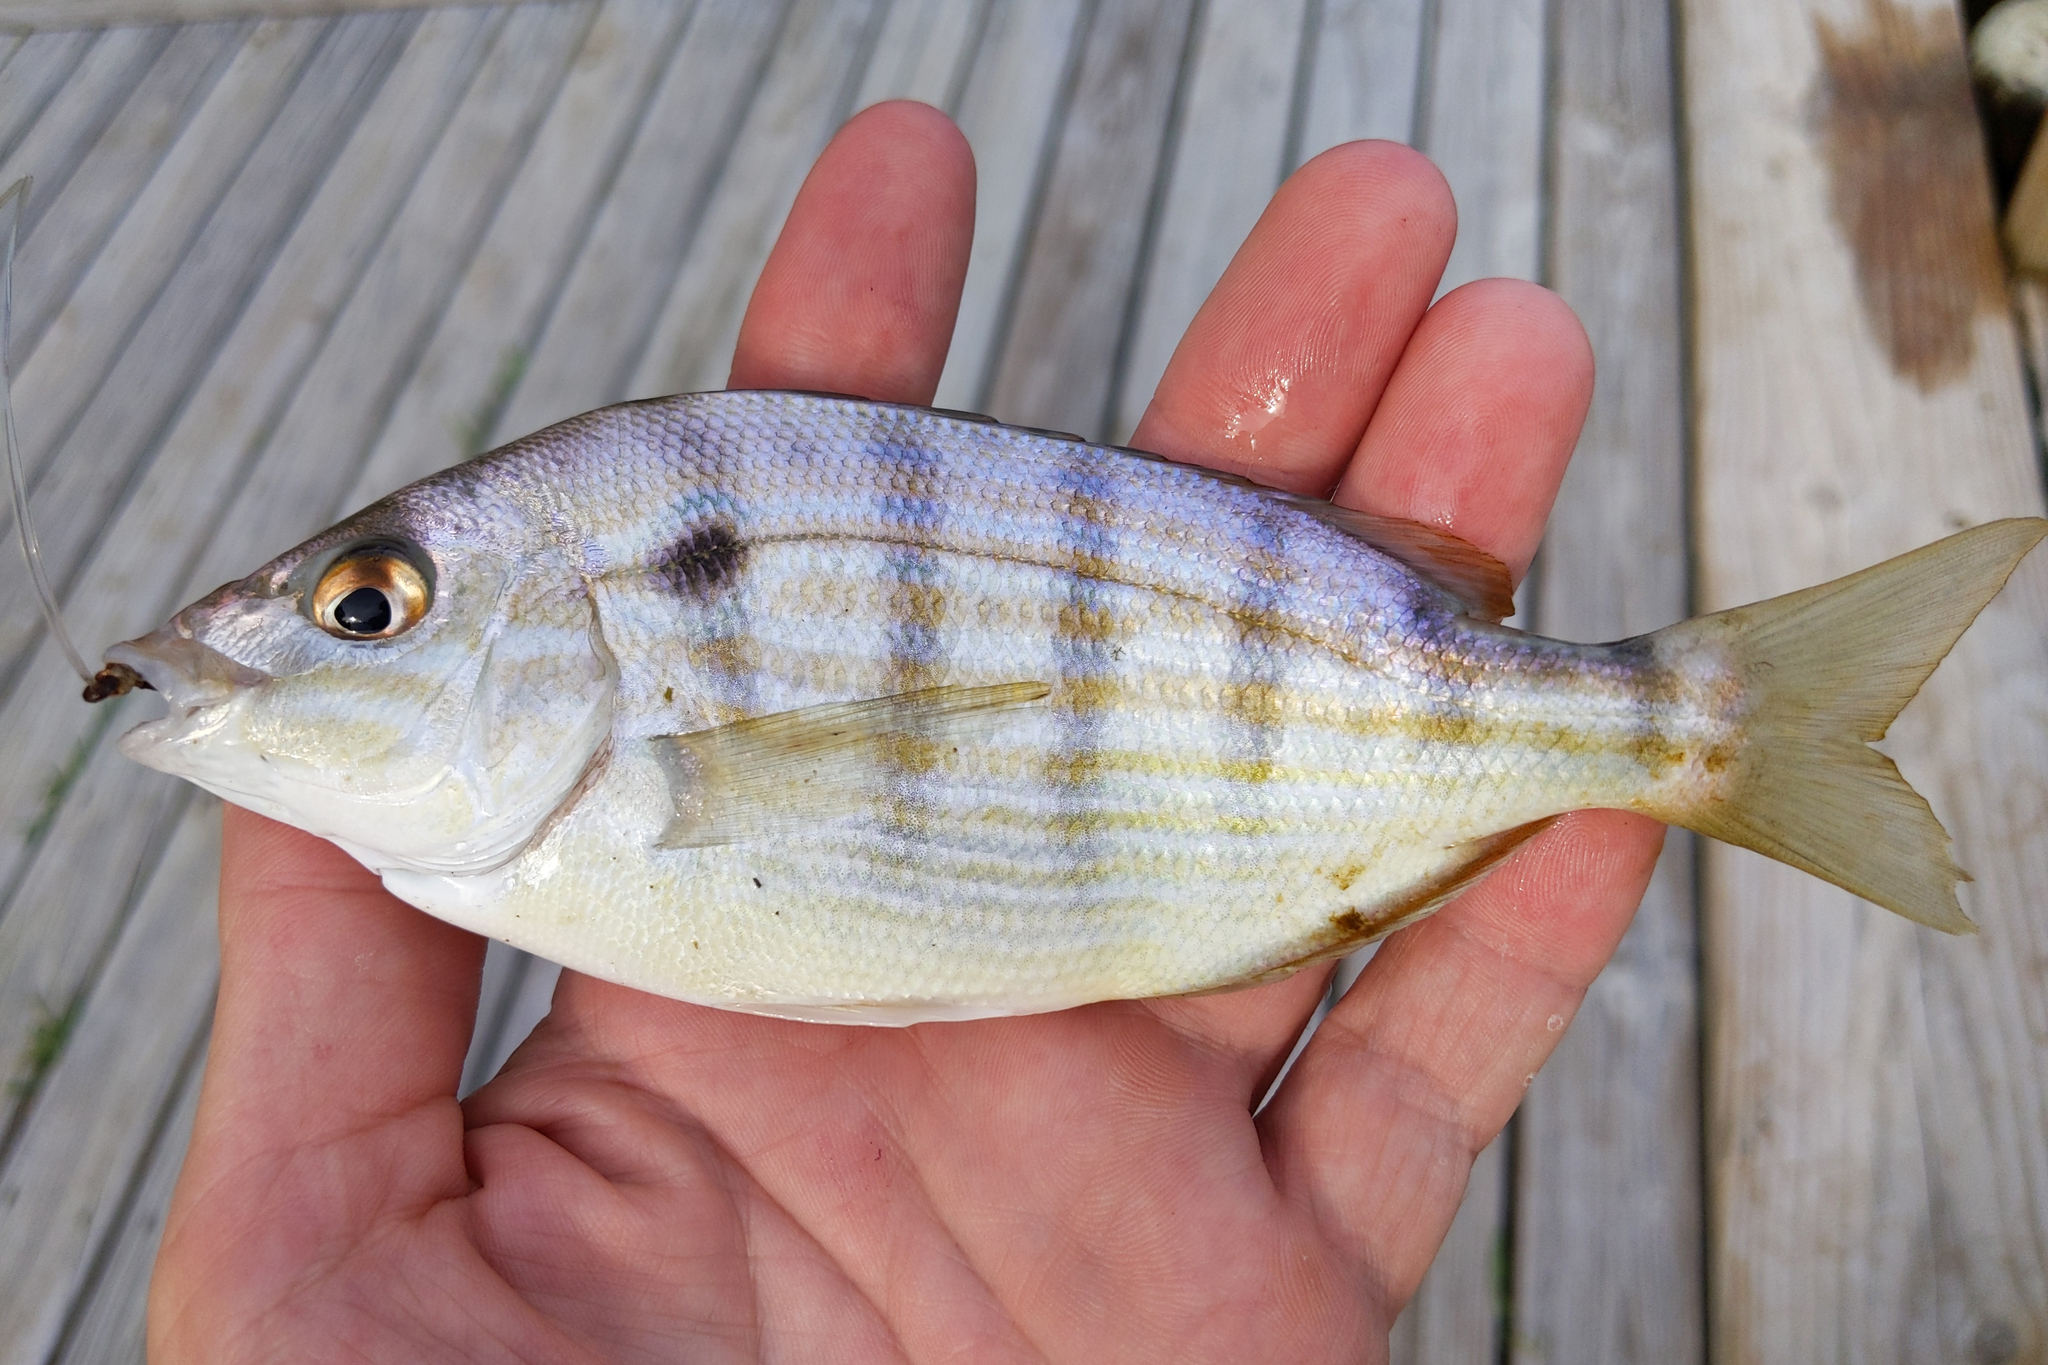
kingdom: Animalia
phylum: Chordata
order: Perciformes
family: Sparidae
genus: Lagodon
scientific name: Lagodon rhomboides
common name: Pinfish
